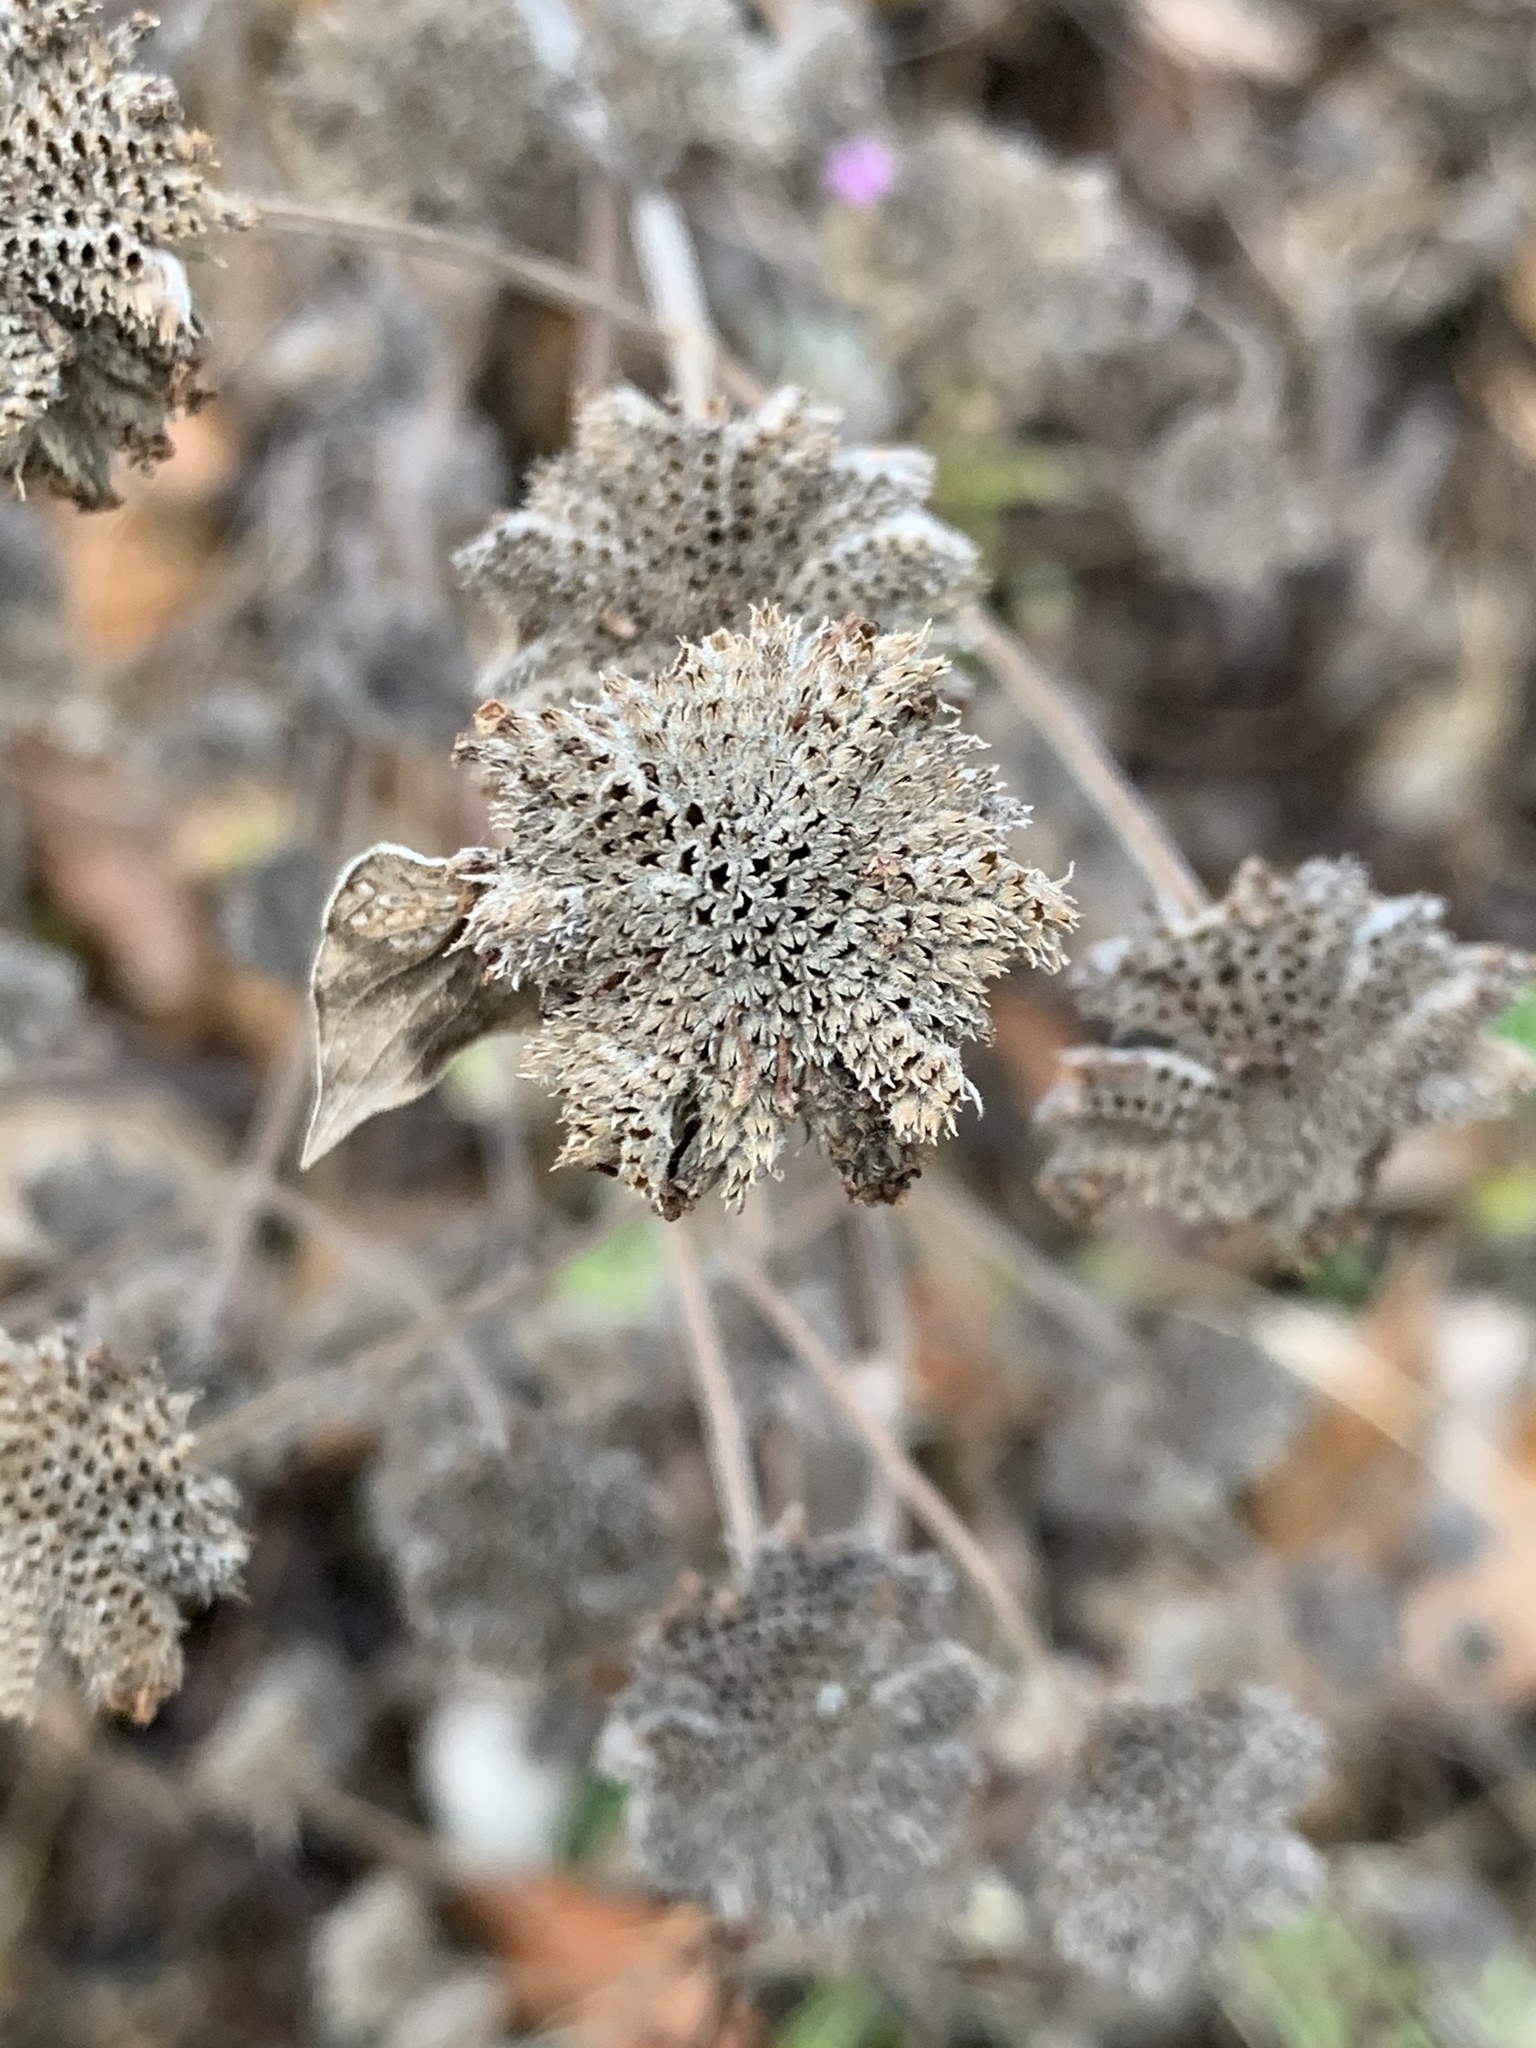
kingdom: Plantae
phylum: Tracheophyta
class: Magnoliopsida
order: Lamiales
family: Lamiaceae
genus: Pycnanthemum
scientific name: Pycnanthemum muticum
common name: Blunt mountain-mint
